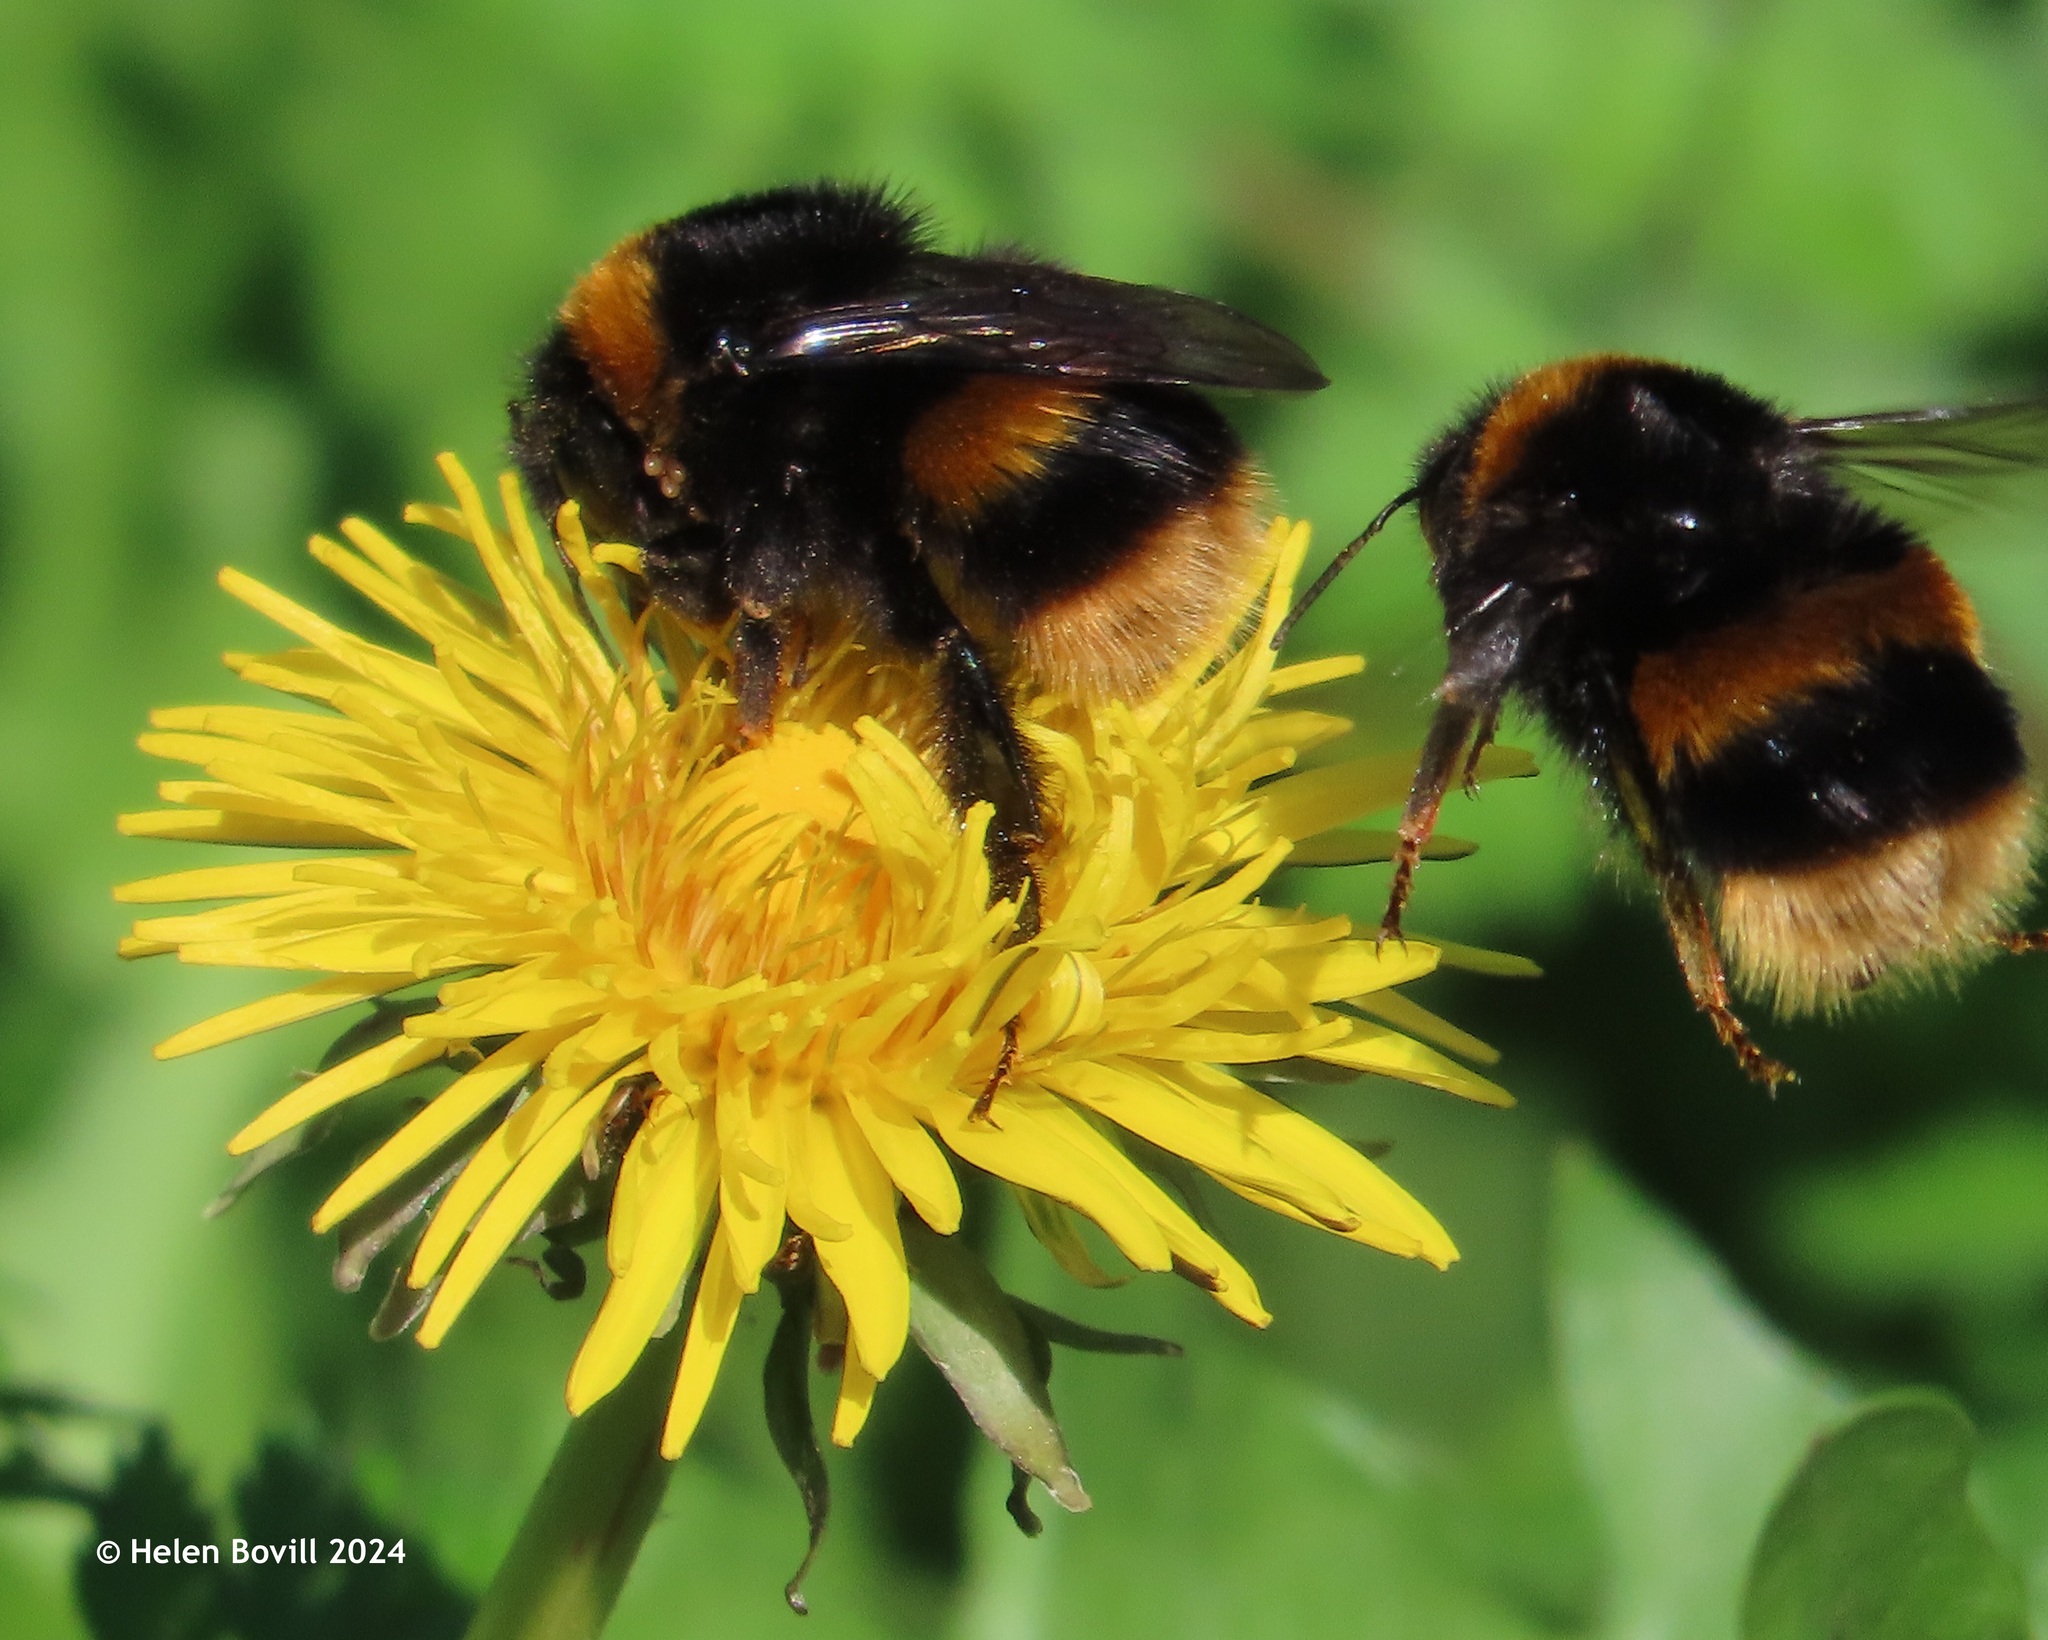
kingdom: Animalia
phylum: Arthropoda
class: Insecta
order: Hymenoptera
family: Apidae
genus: Bombus
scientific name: Bombus terrestris
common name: Buff-tailed bumblebee
